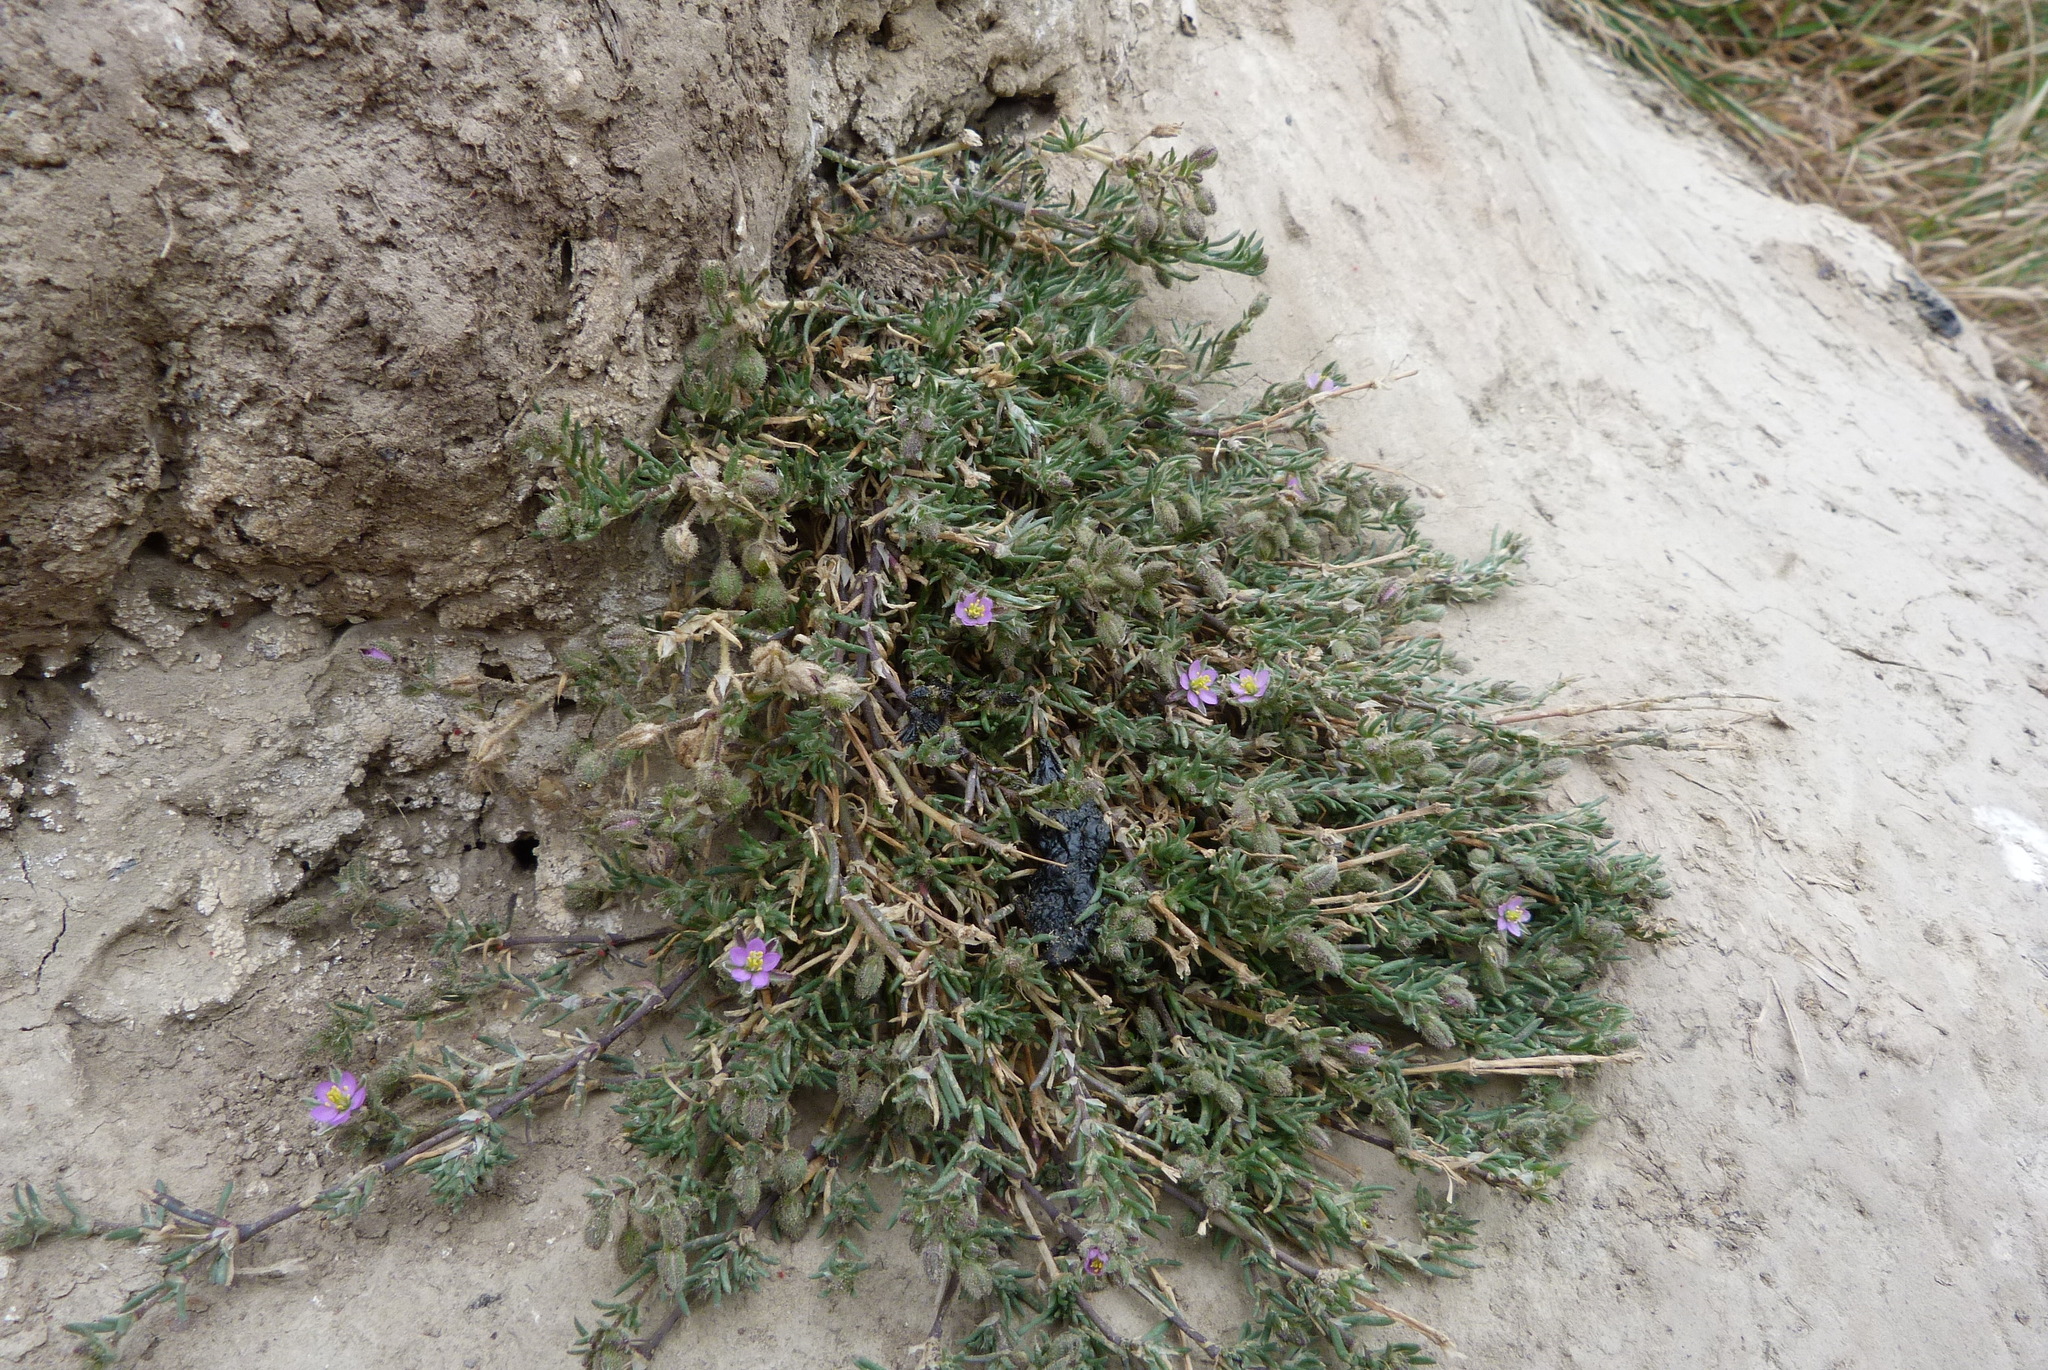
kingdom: Plantae
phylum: Tracheophyta
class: Magnoliopsida
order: Caryophyllales
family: Caryophyllaceae
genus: Spergularia
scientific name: Spergularia rubra
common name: Red sand-spurrey
